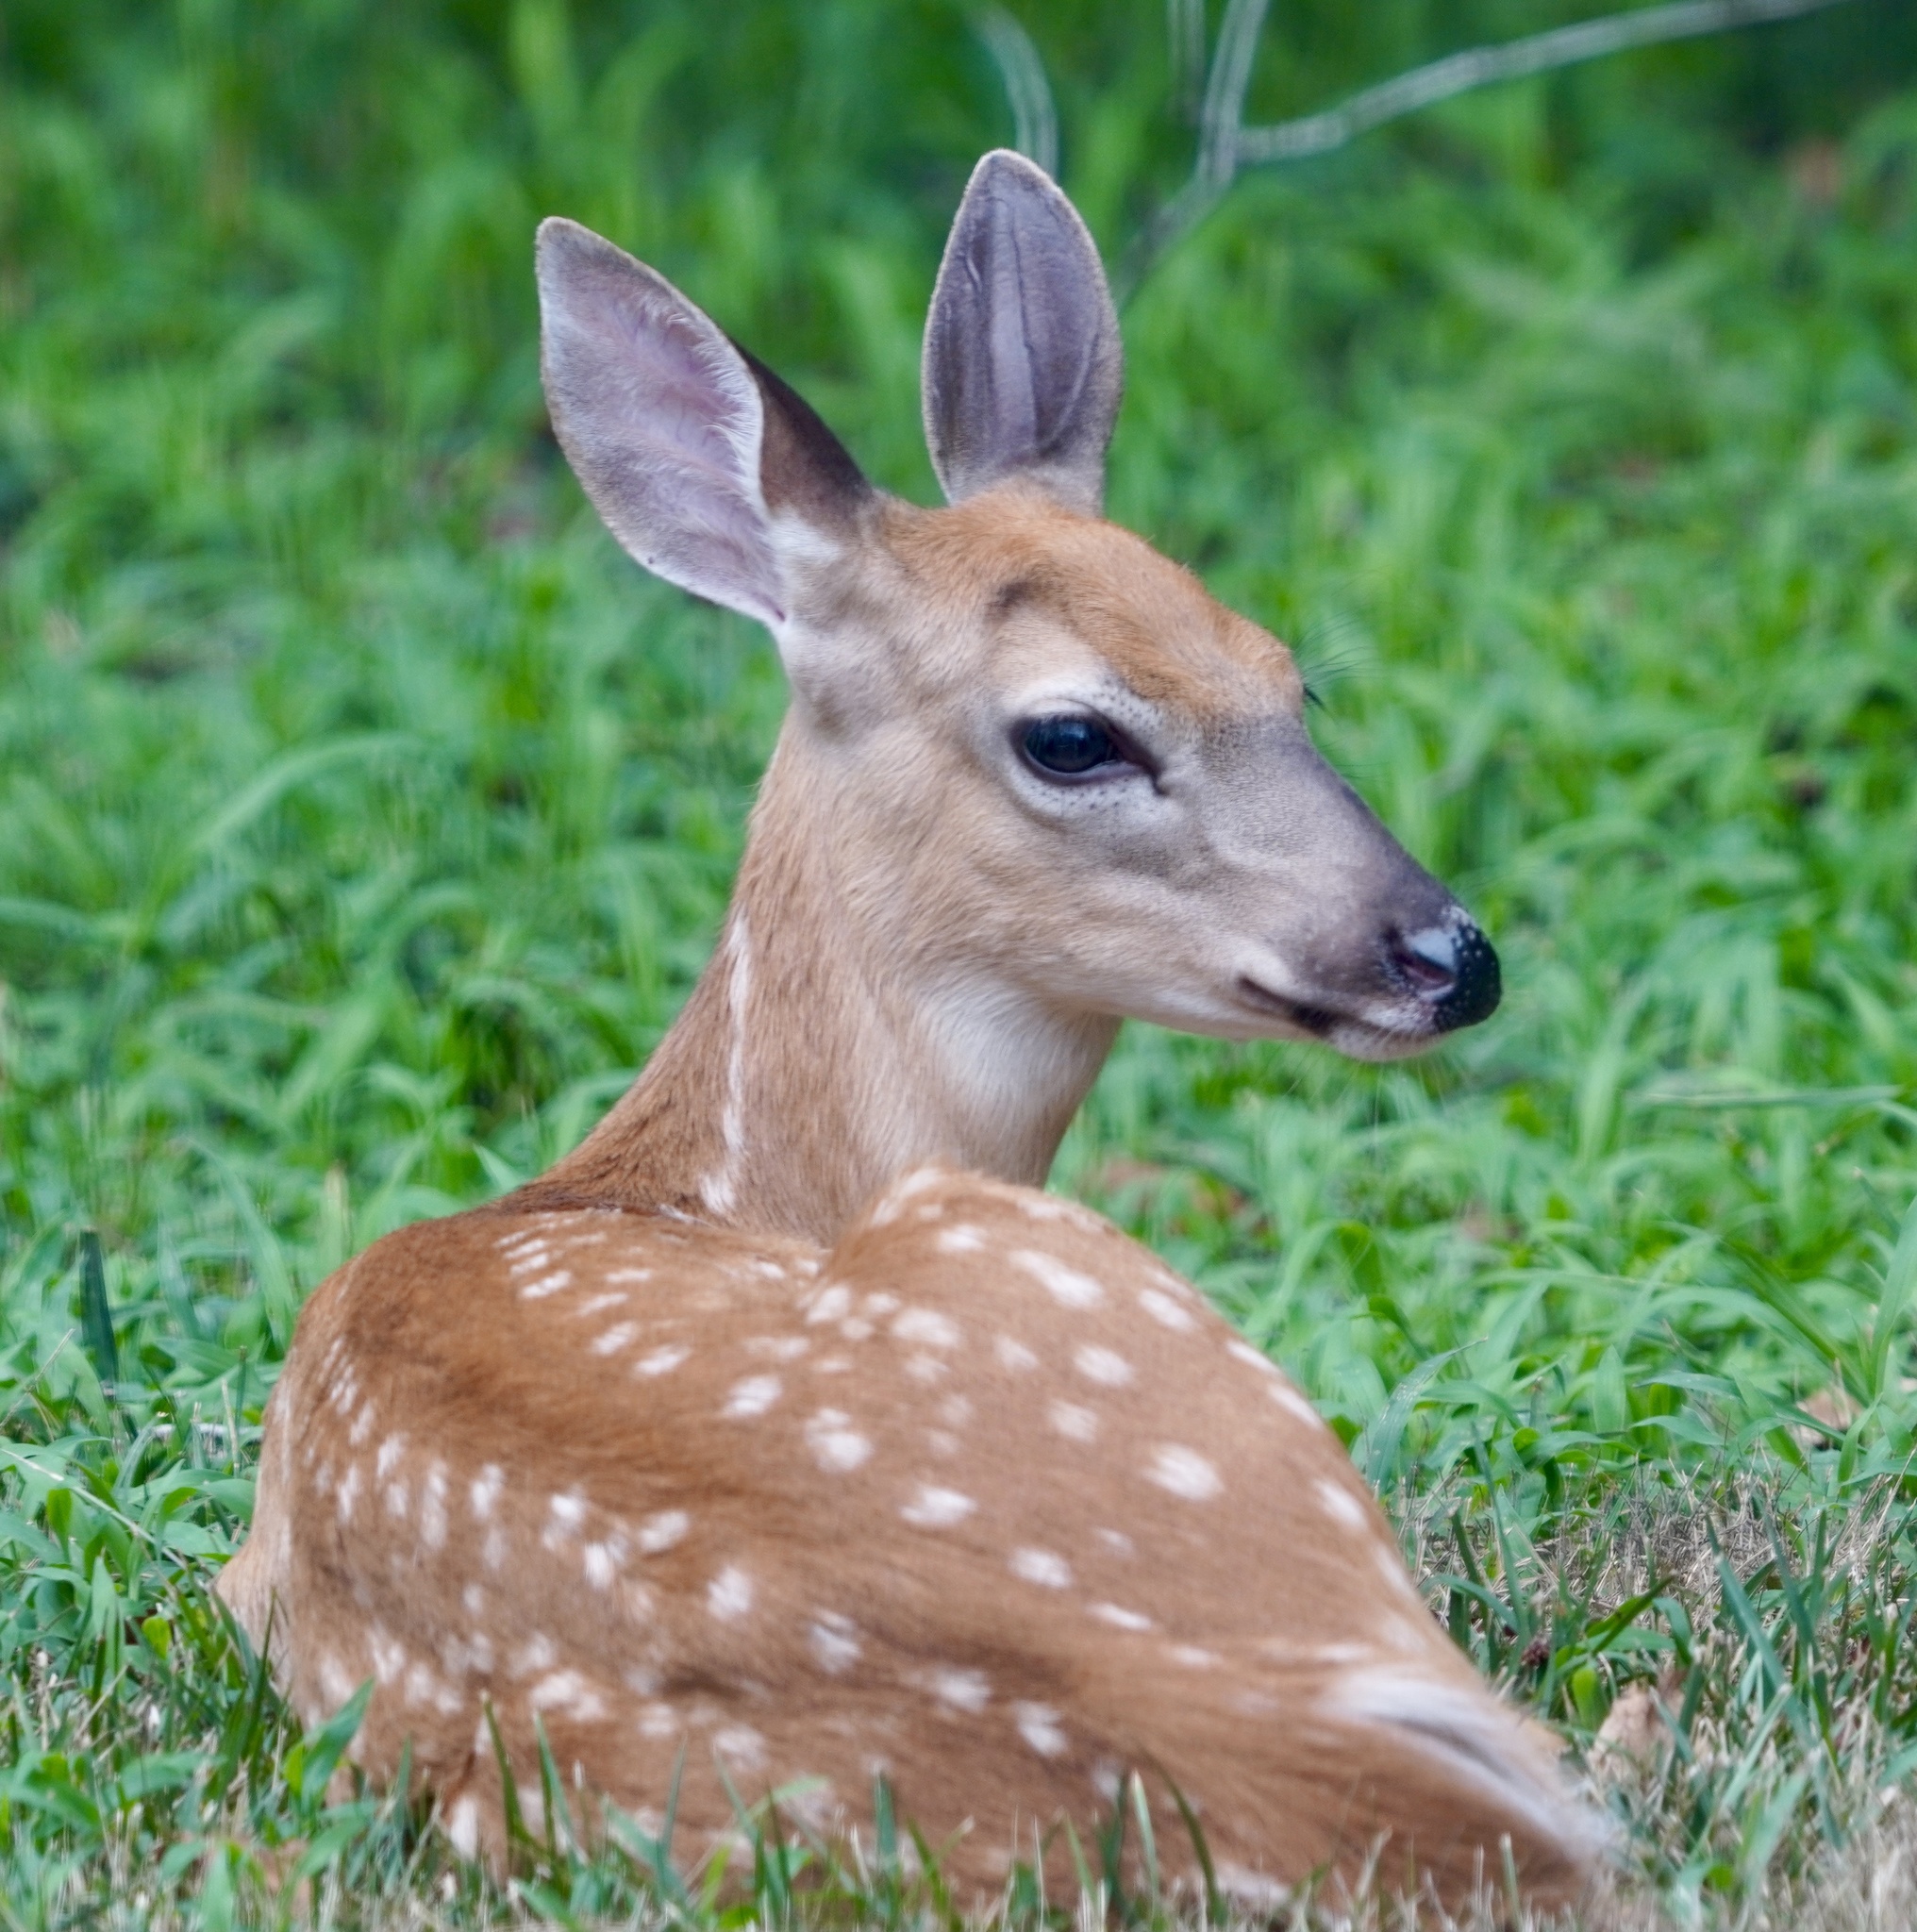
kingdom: Animalia
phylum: Chordata
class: Mammalia
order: Artiodactyla
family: Cervidae
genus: Odocoileus
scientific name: Odocoileus virginianus
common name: White-tailed deer
